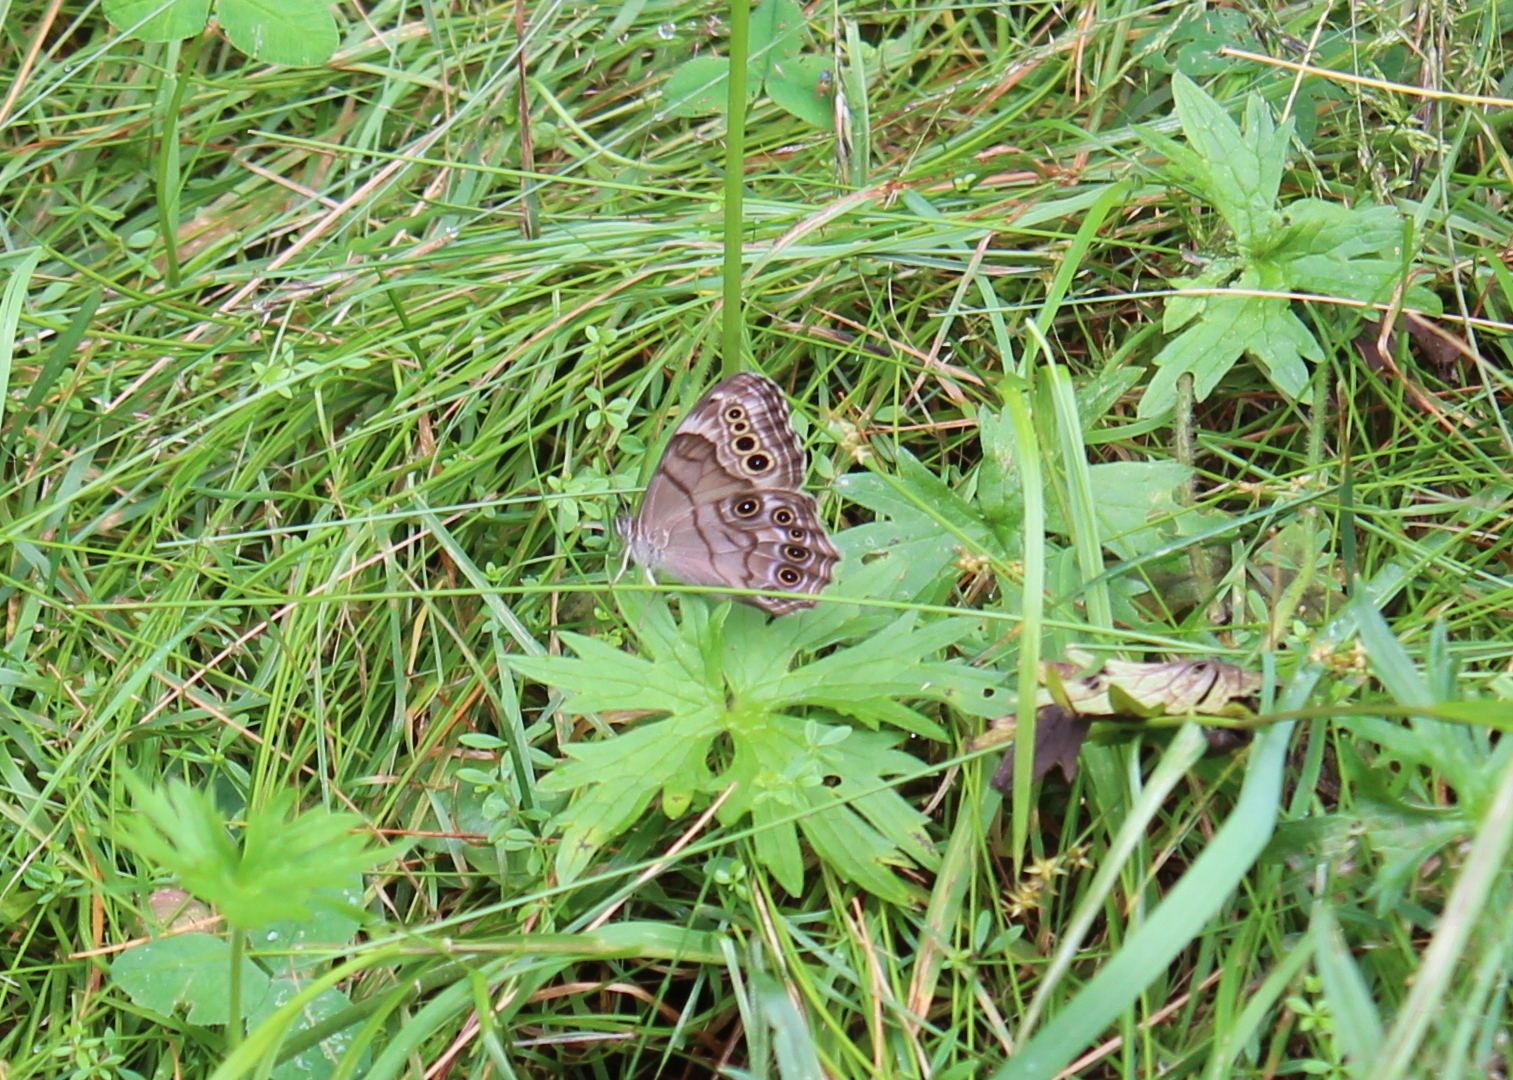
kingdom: Animalia
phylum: Arthropoda
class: Insecta
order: Lepidoptera
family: Nymphalidae
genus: Lethe
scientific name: Lethe anthedon
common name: Northern pearly-eye
